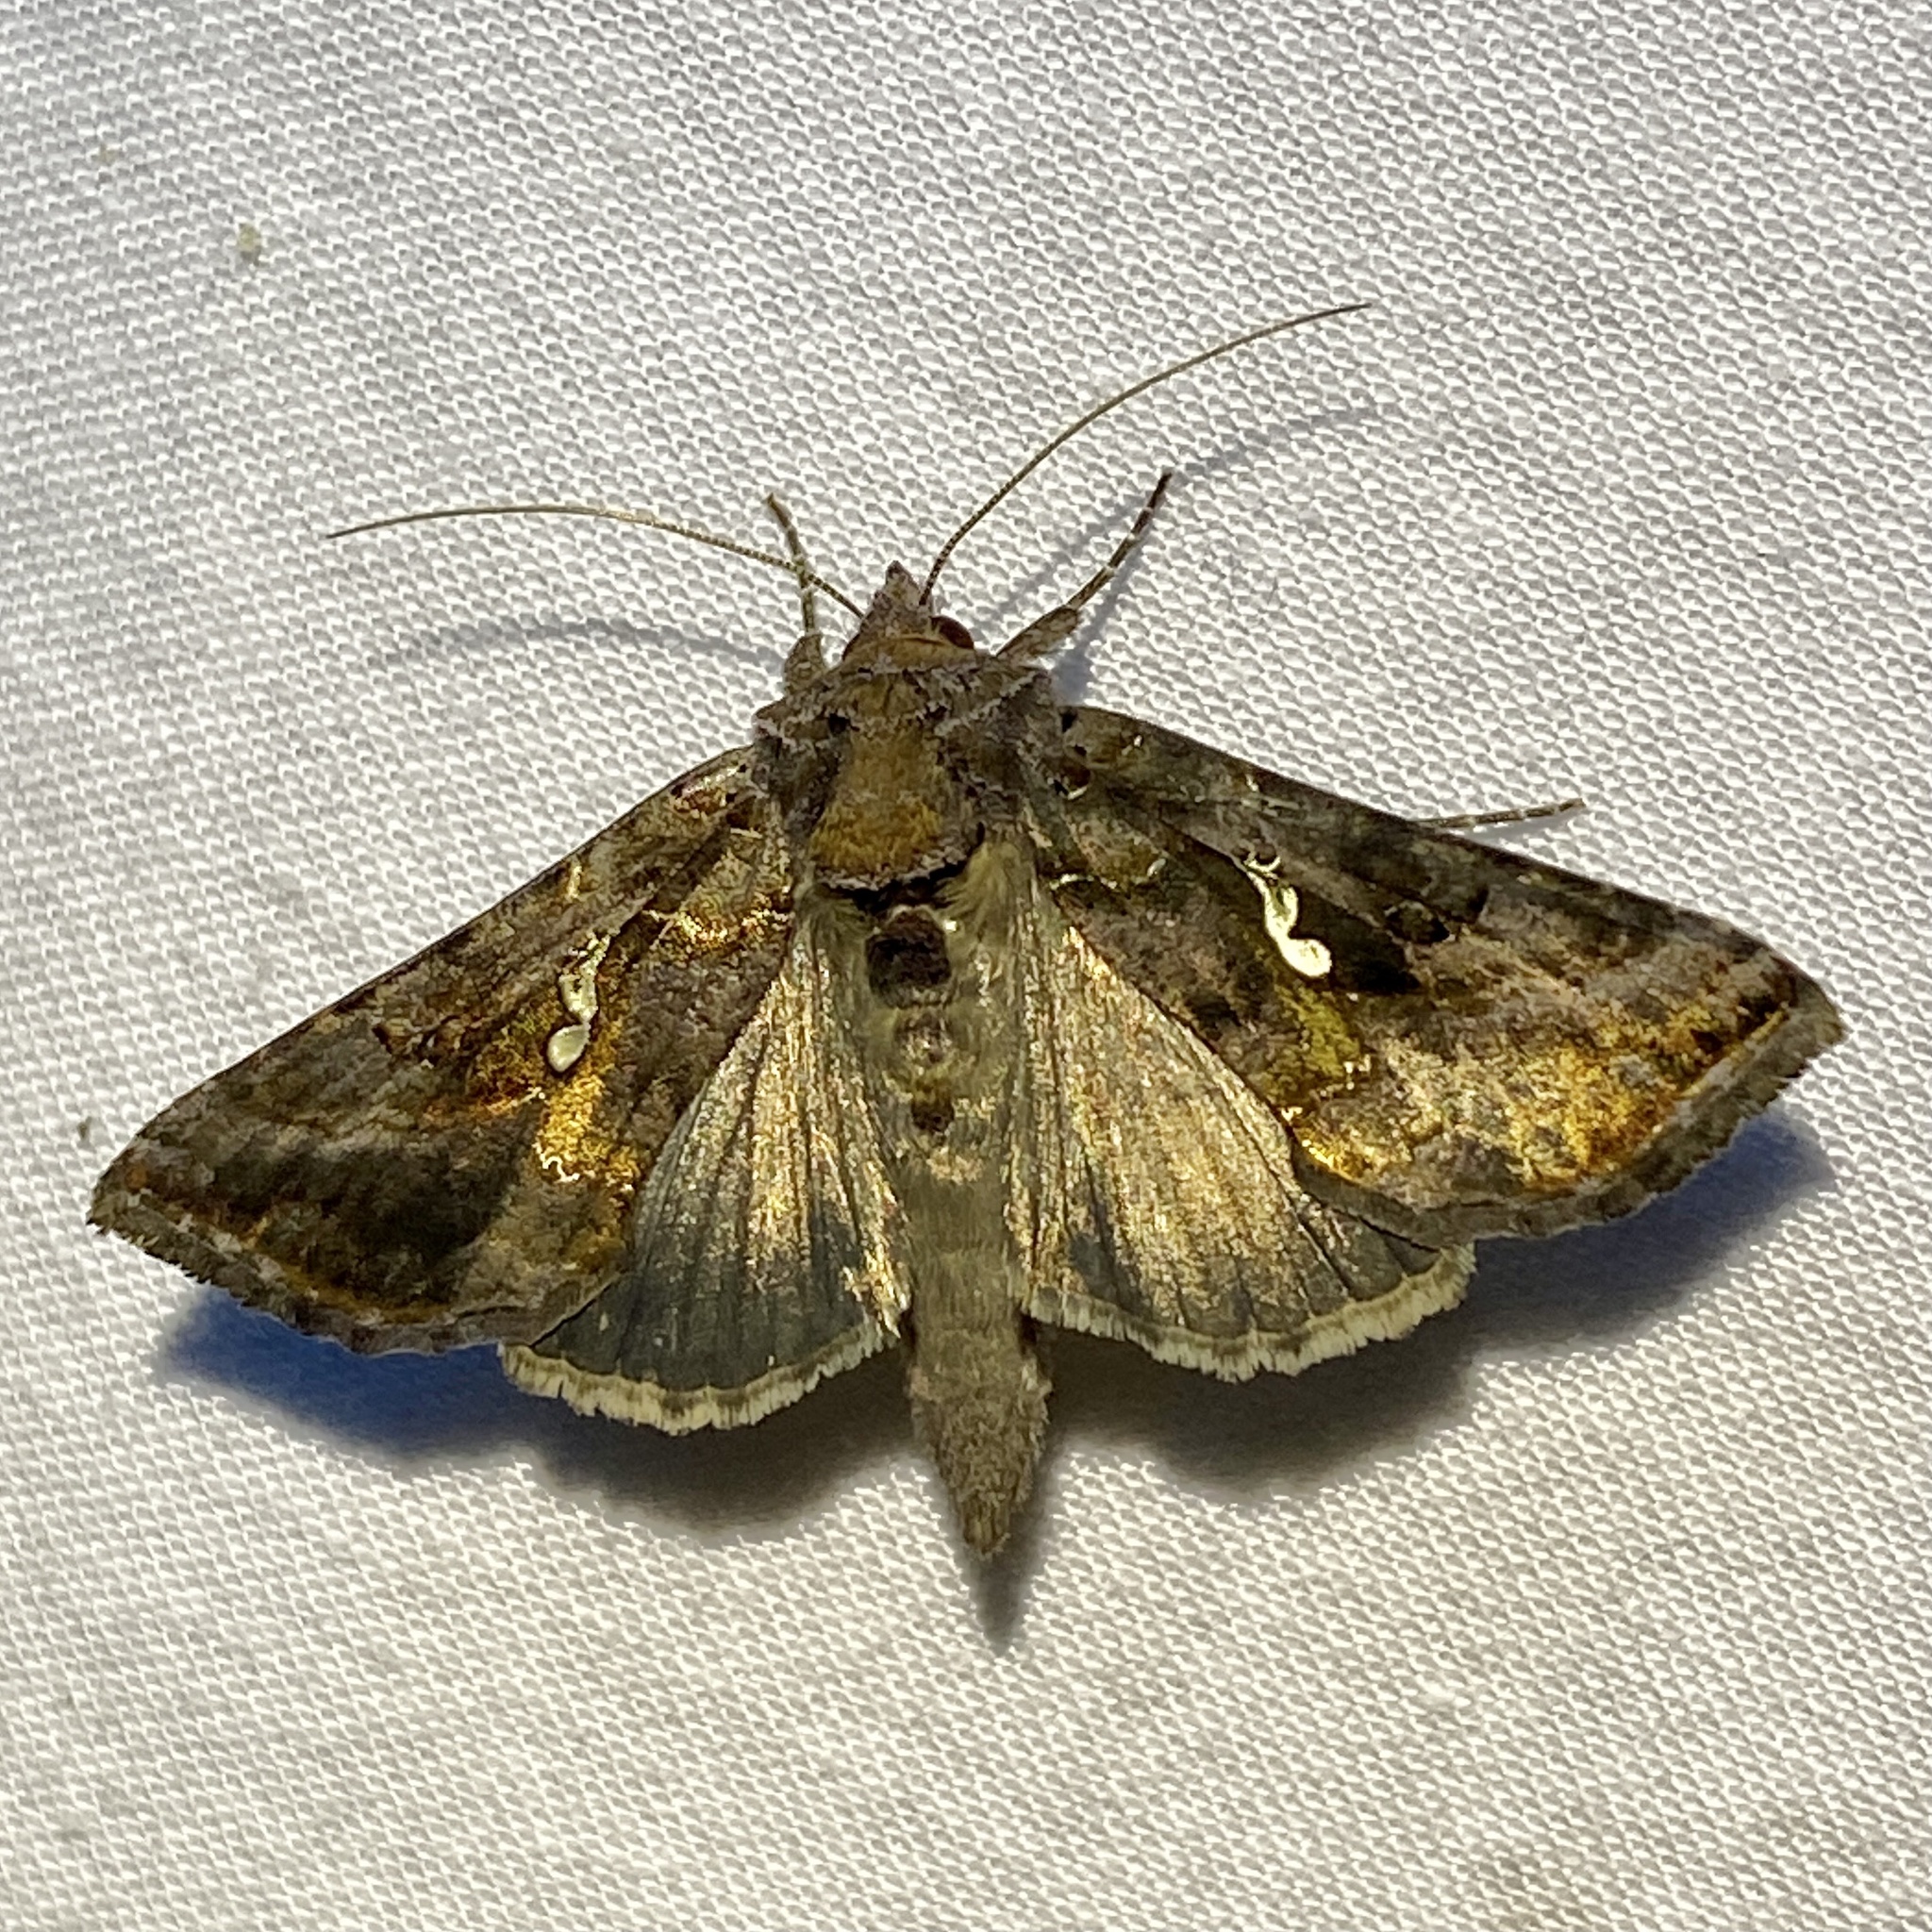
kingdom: Animalia
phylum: Arthropoda
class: Insecta
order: Lepidoptera
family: Noctuidae
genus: Autographa
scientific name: Autographa precationis
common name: Common looper moth
